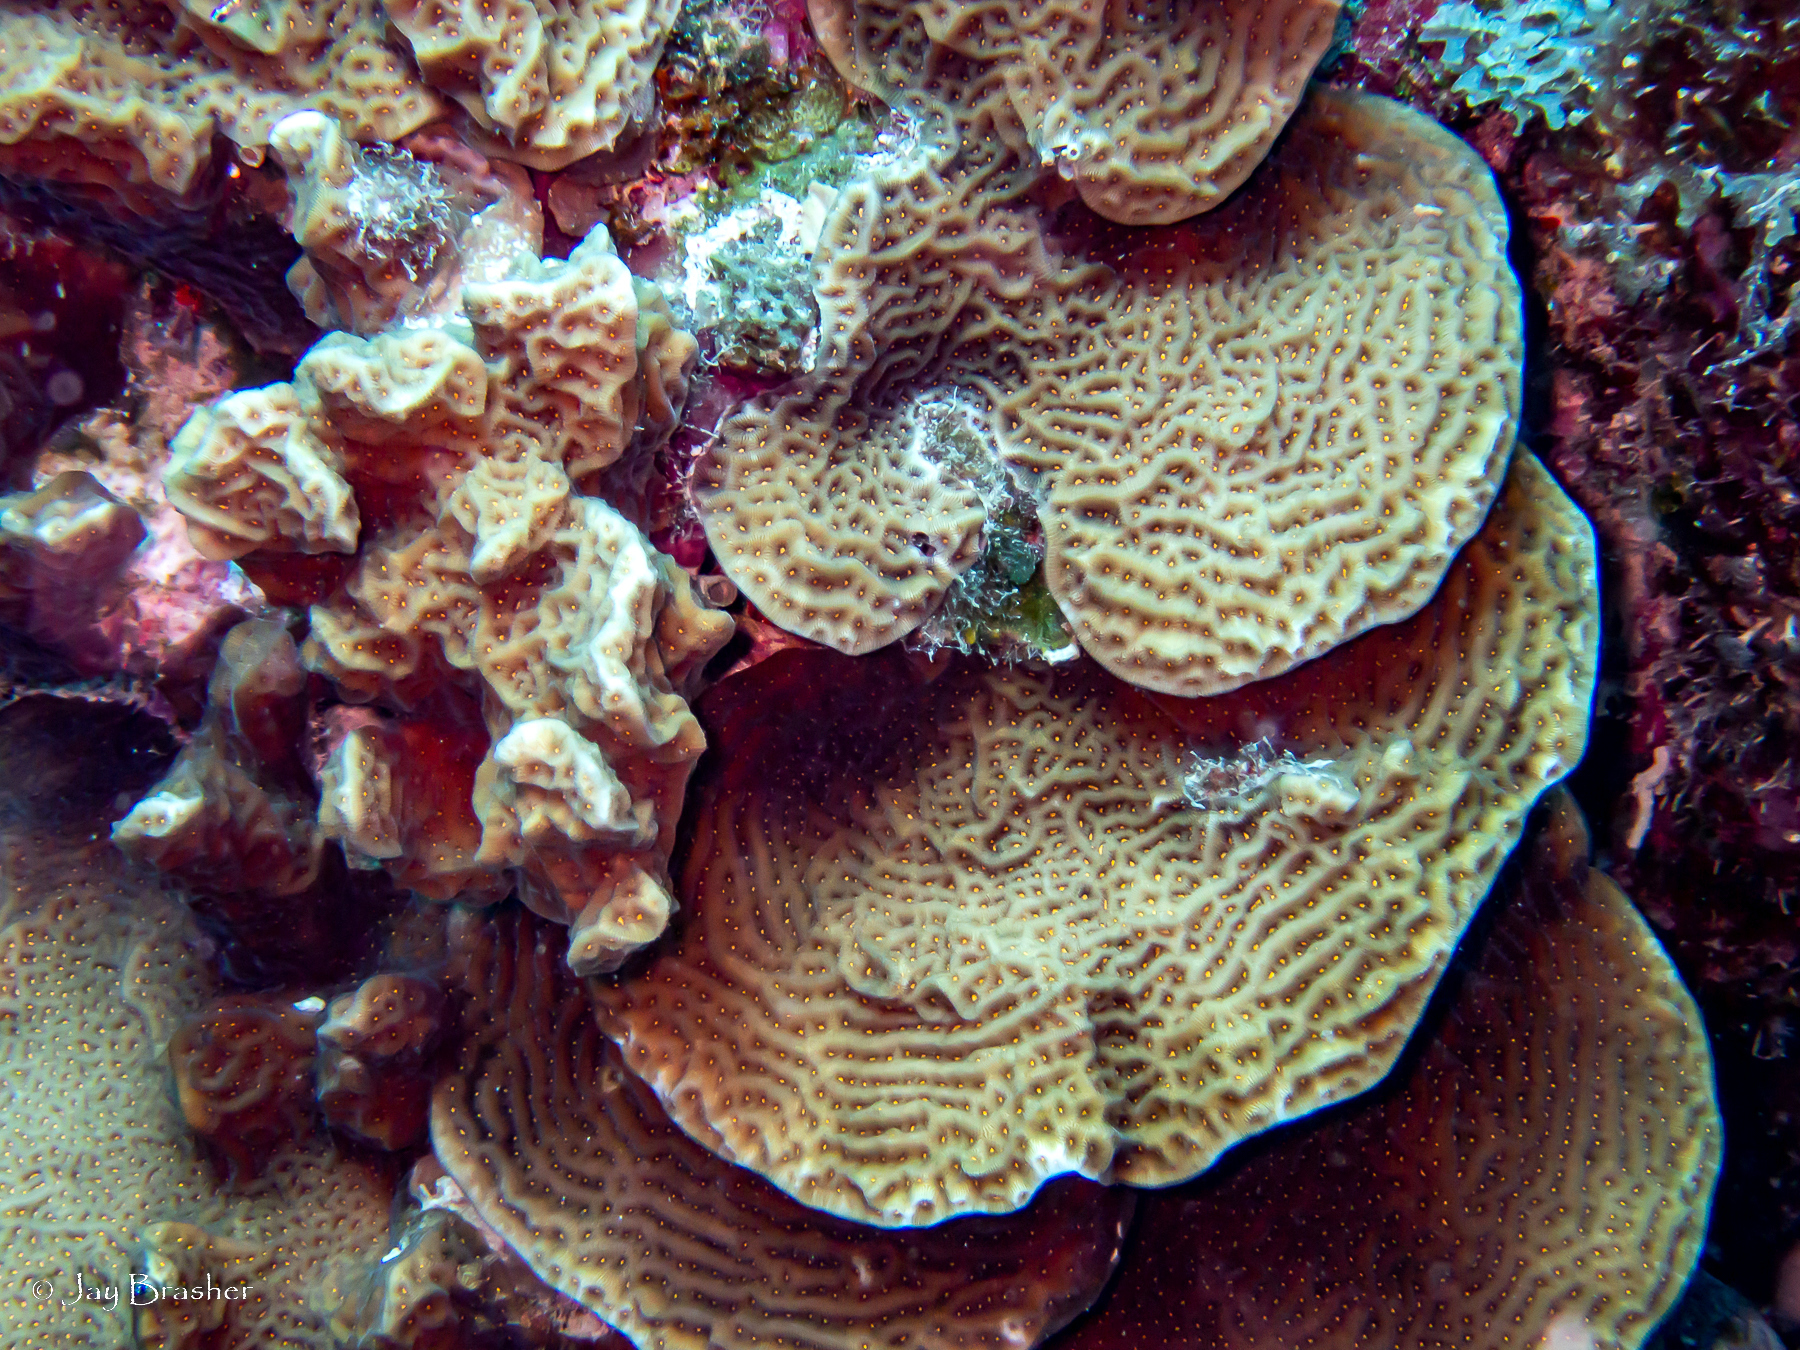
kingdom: Animalia
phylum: Cnidaria
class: Anthozoa
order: Scleractinia
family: Agariciidae
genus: Agaricia
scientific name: Agaricia agaricites
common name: Lettuce coral
